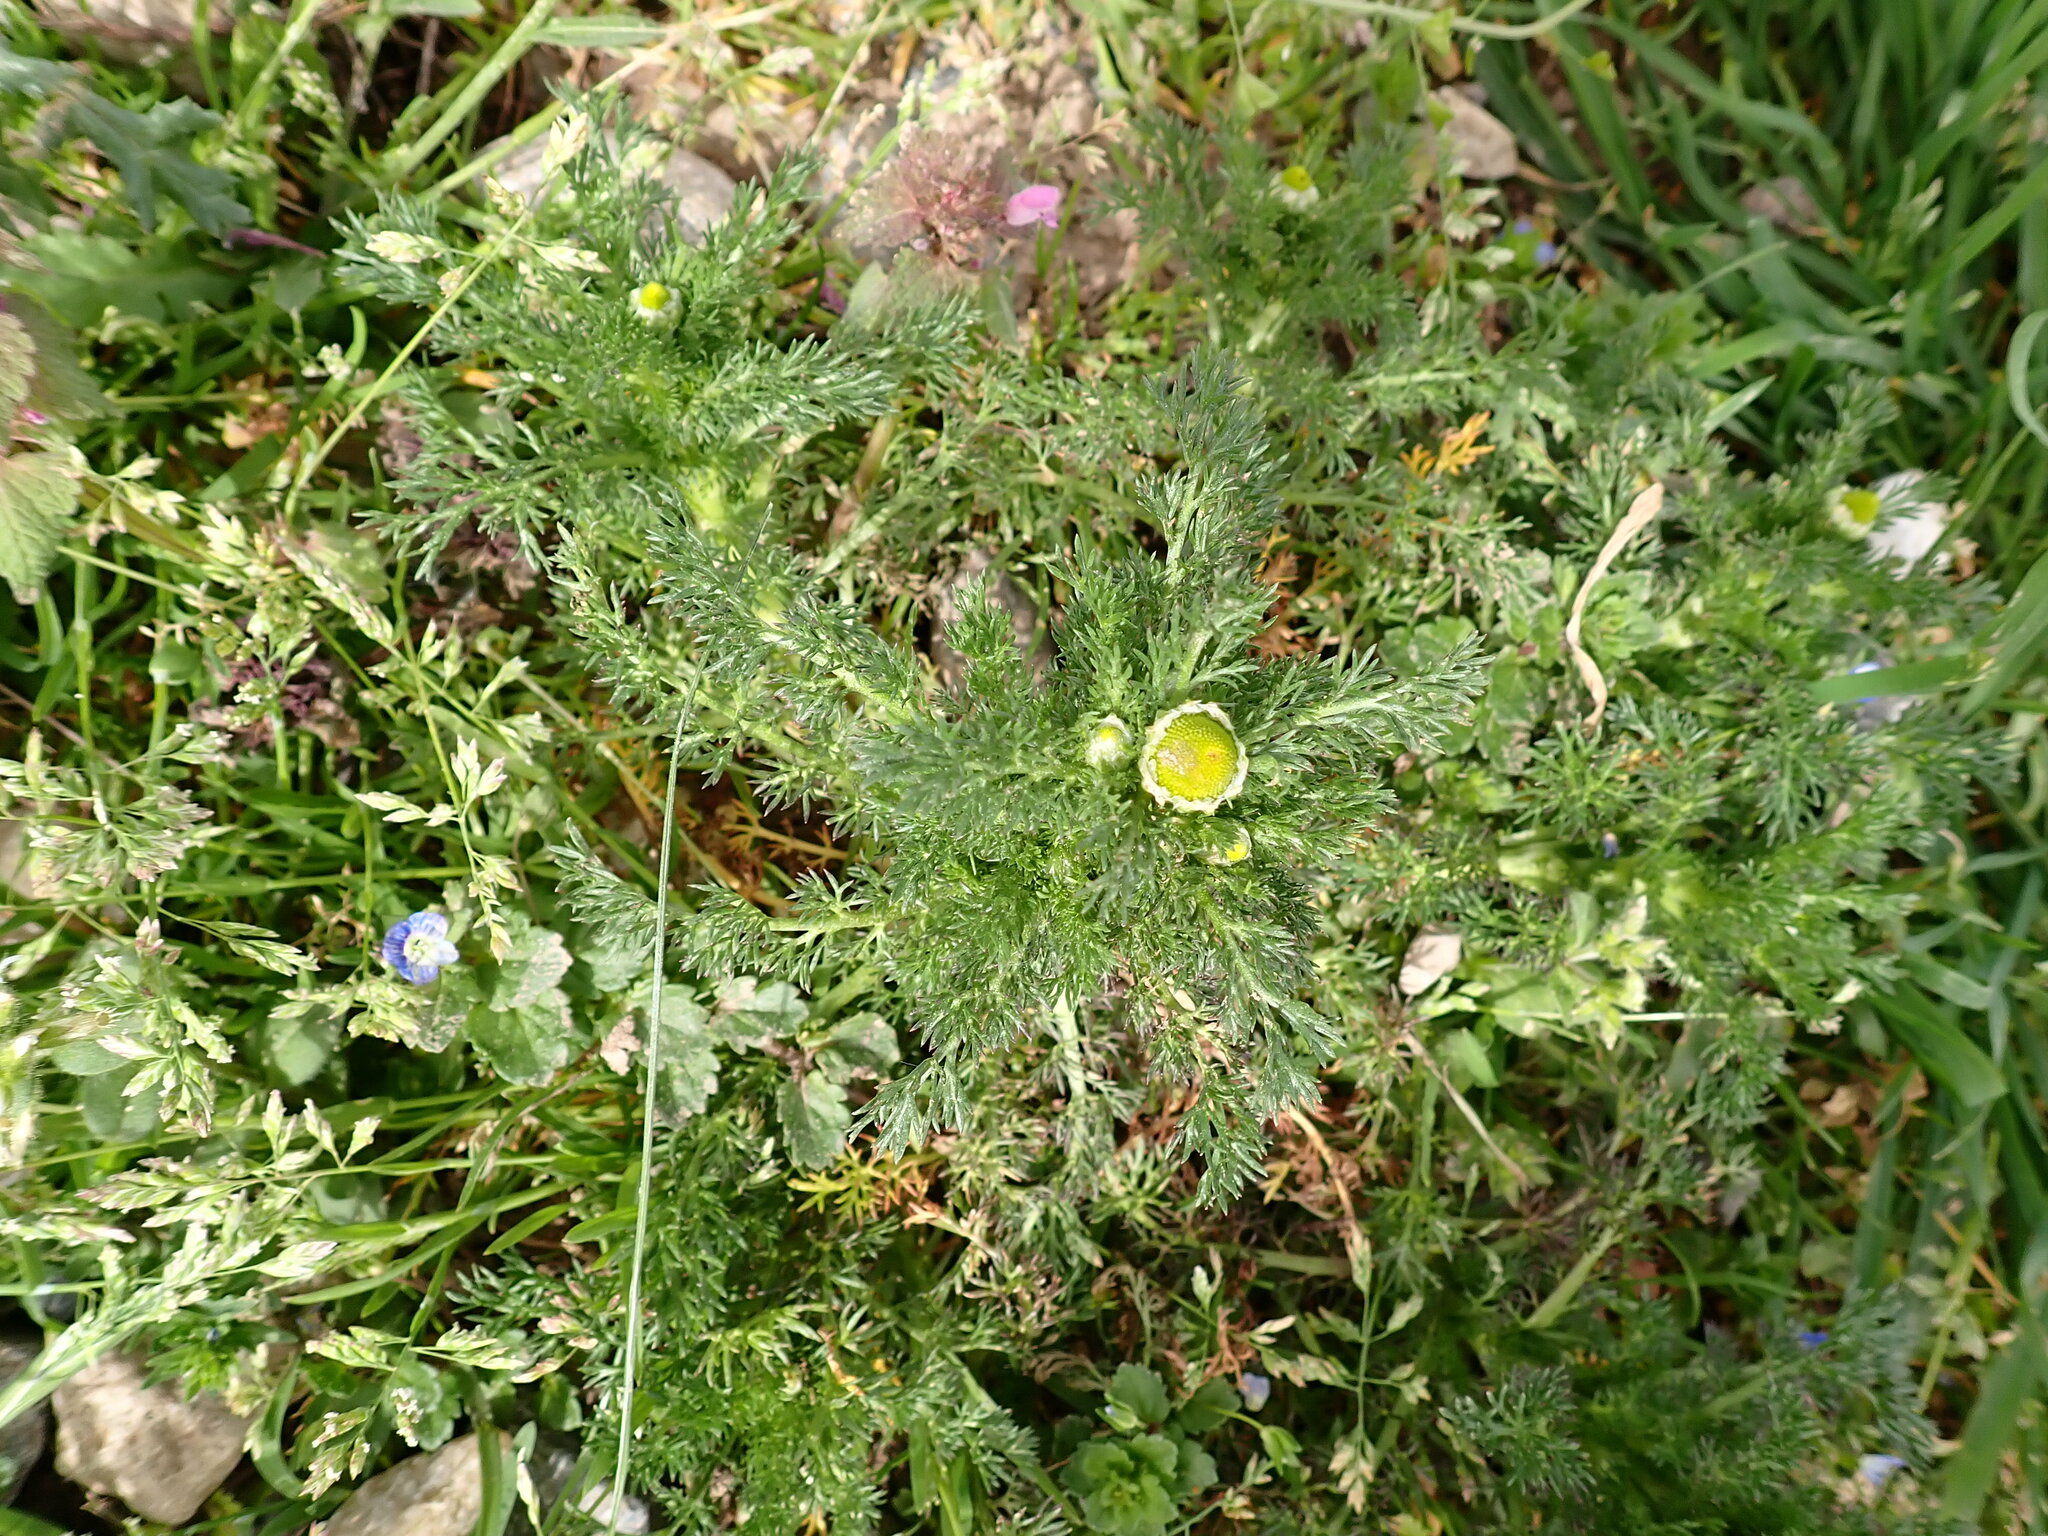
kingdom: Plantae
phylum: Tracheophyta
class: Magnoliopsida
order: Asterales
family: Asteraceae
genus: Matricaria
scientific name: Matricaria discoidea
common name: Disc mayweed
